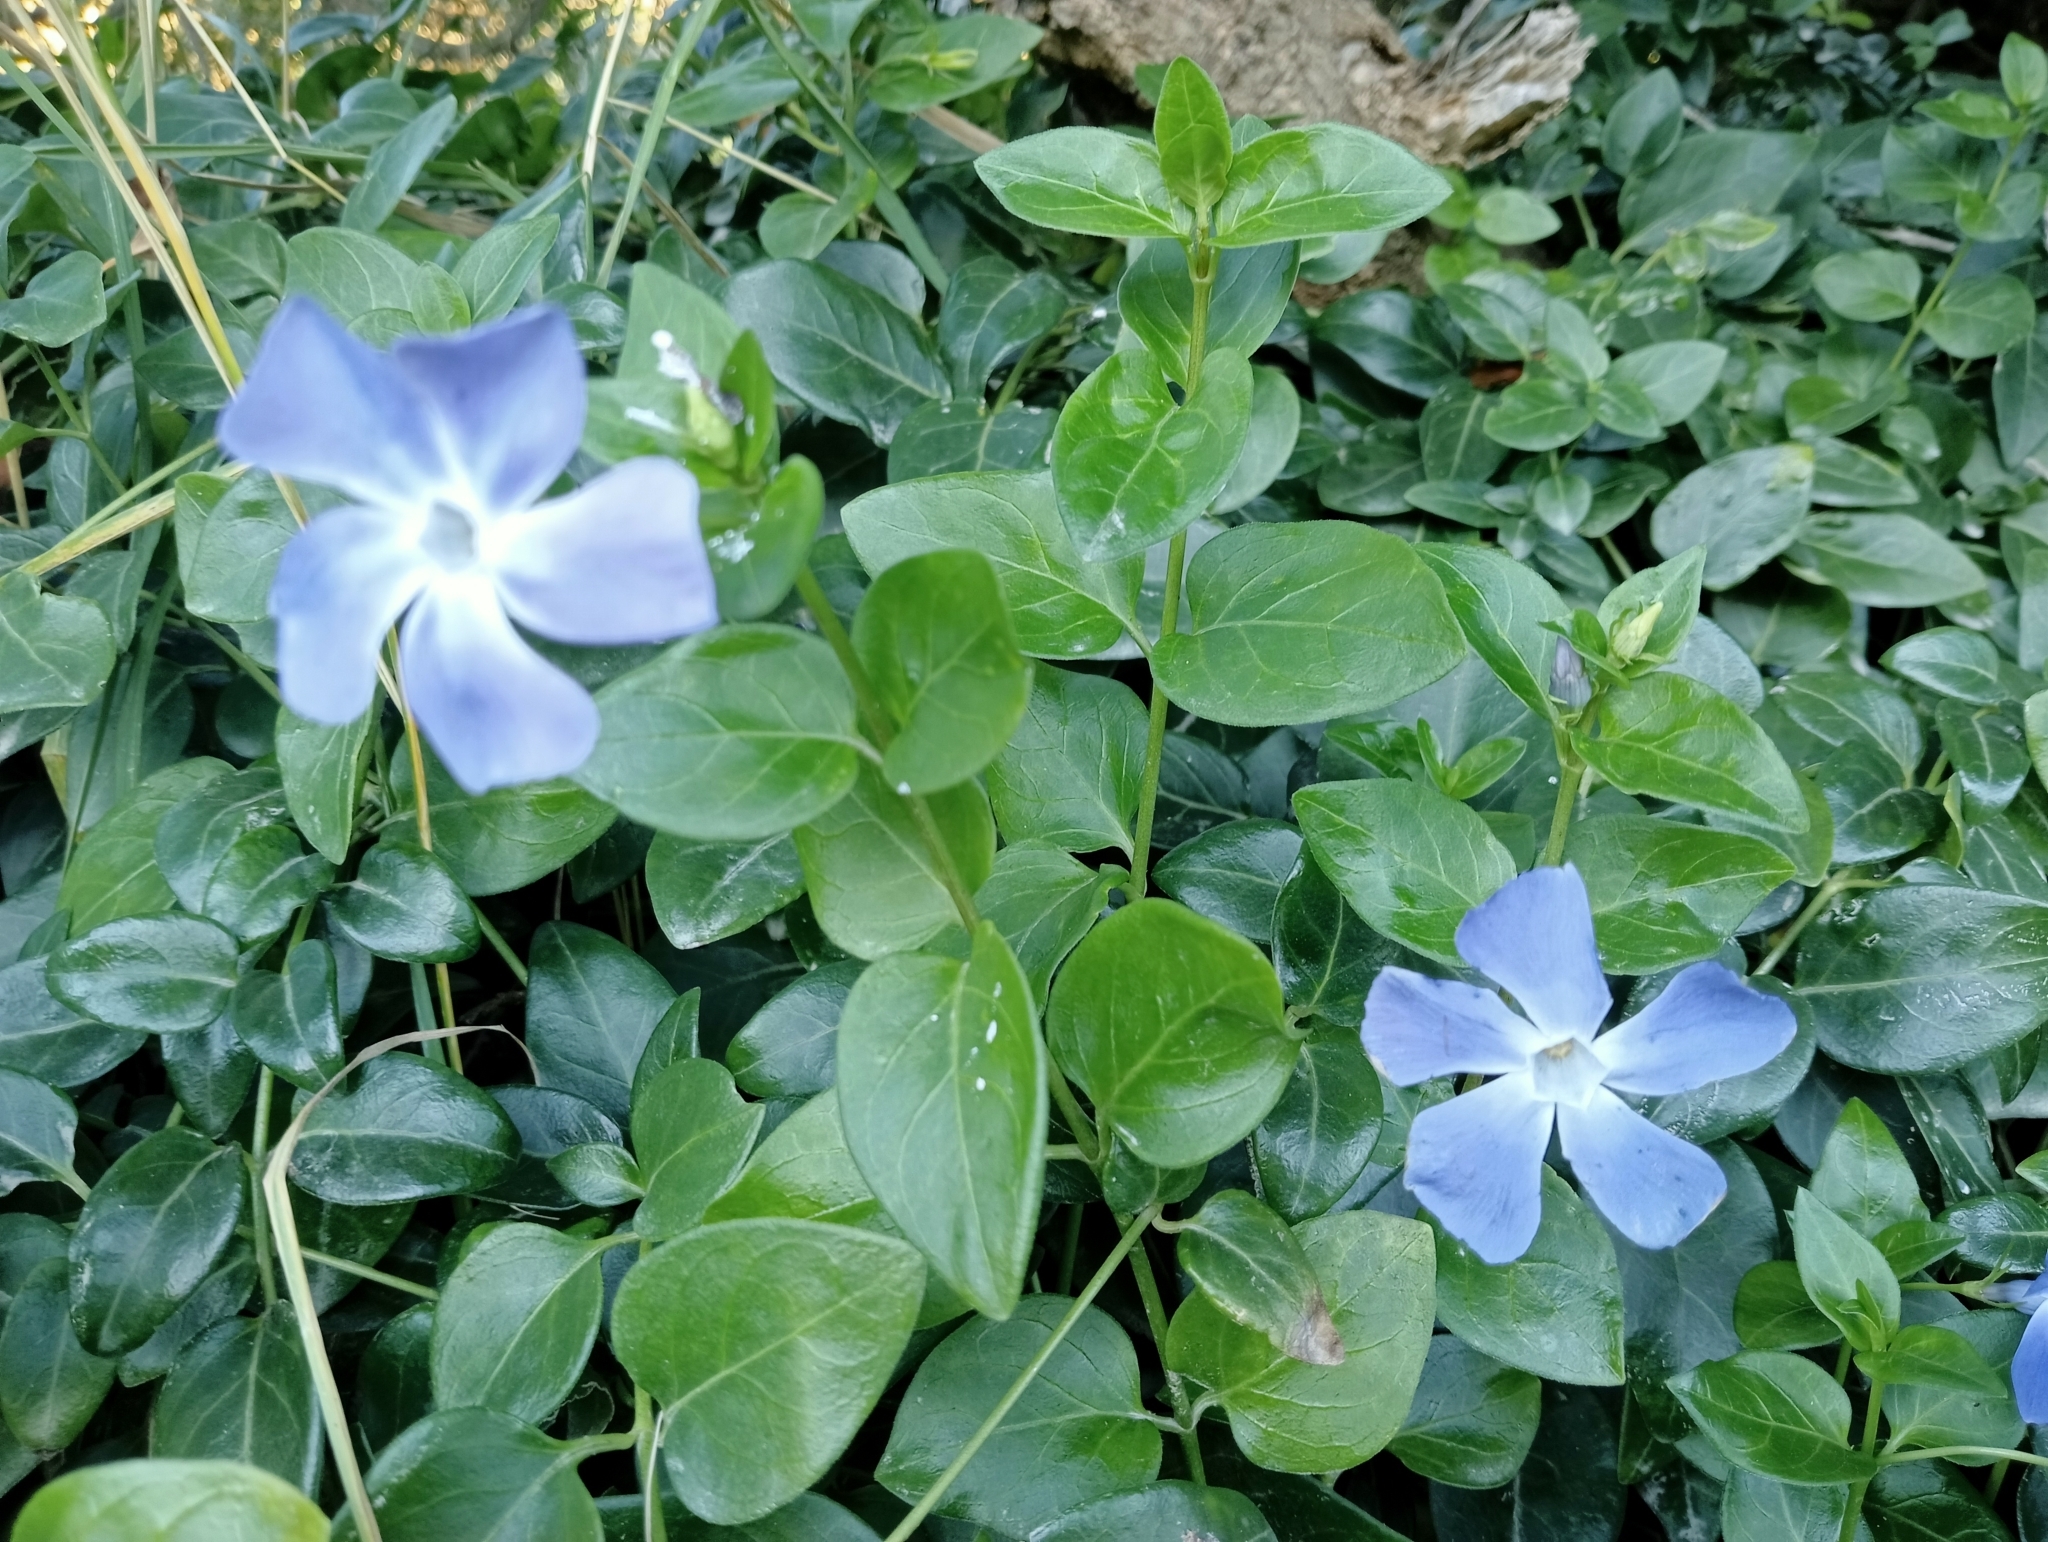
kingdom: Plantae
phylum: Tracheophyta
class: Magnoliopsida
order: Gentianales
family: Apocynaceae
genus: Vinca
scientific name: Vinca major
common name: Greater periwinkle
